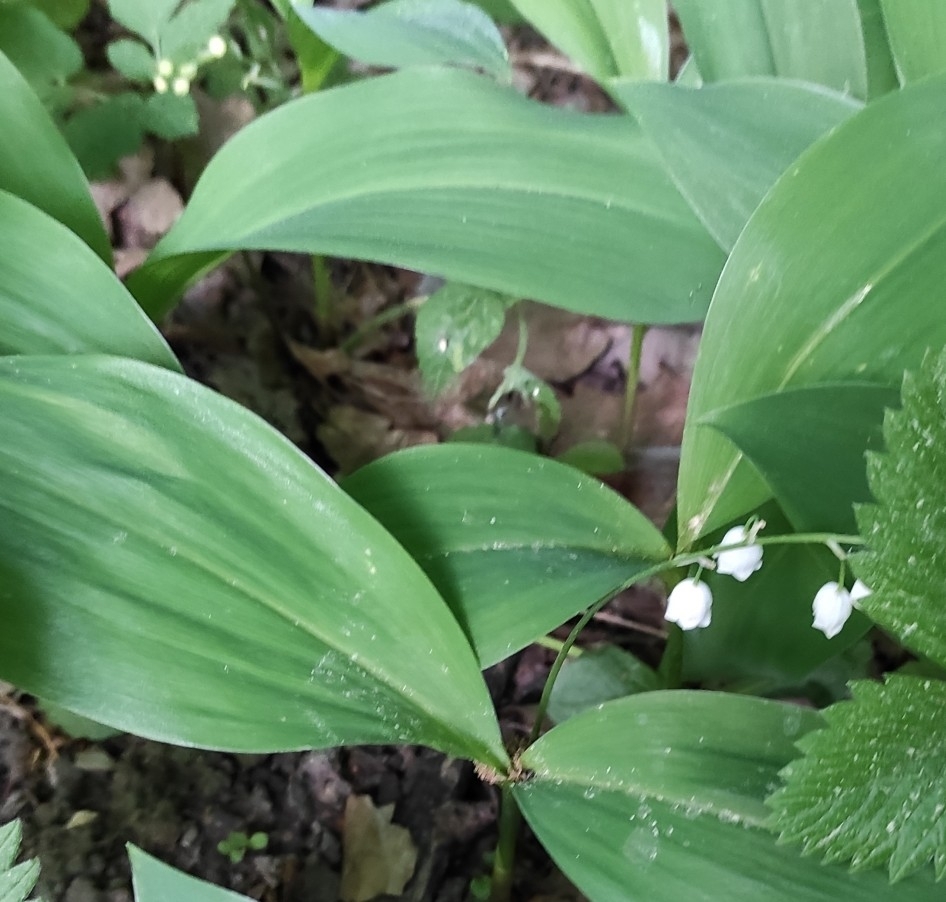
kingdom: Plantae
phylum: Tracheophyta
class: Liliopsida
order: Asparagales
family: Asparagaceae
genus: Convallaria
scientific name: Convallaria majalis
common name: Lily-of-the-valley
